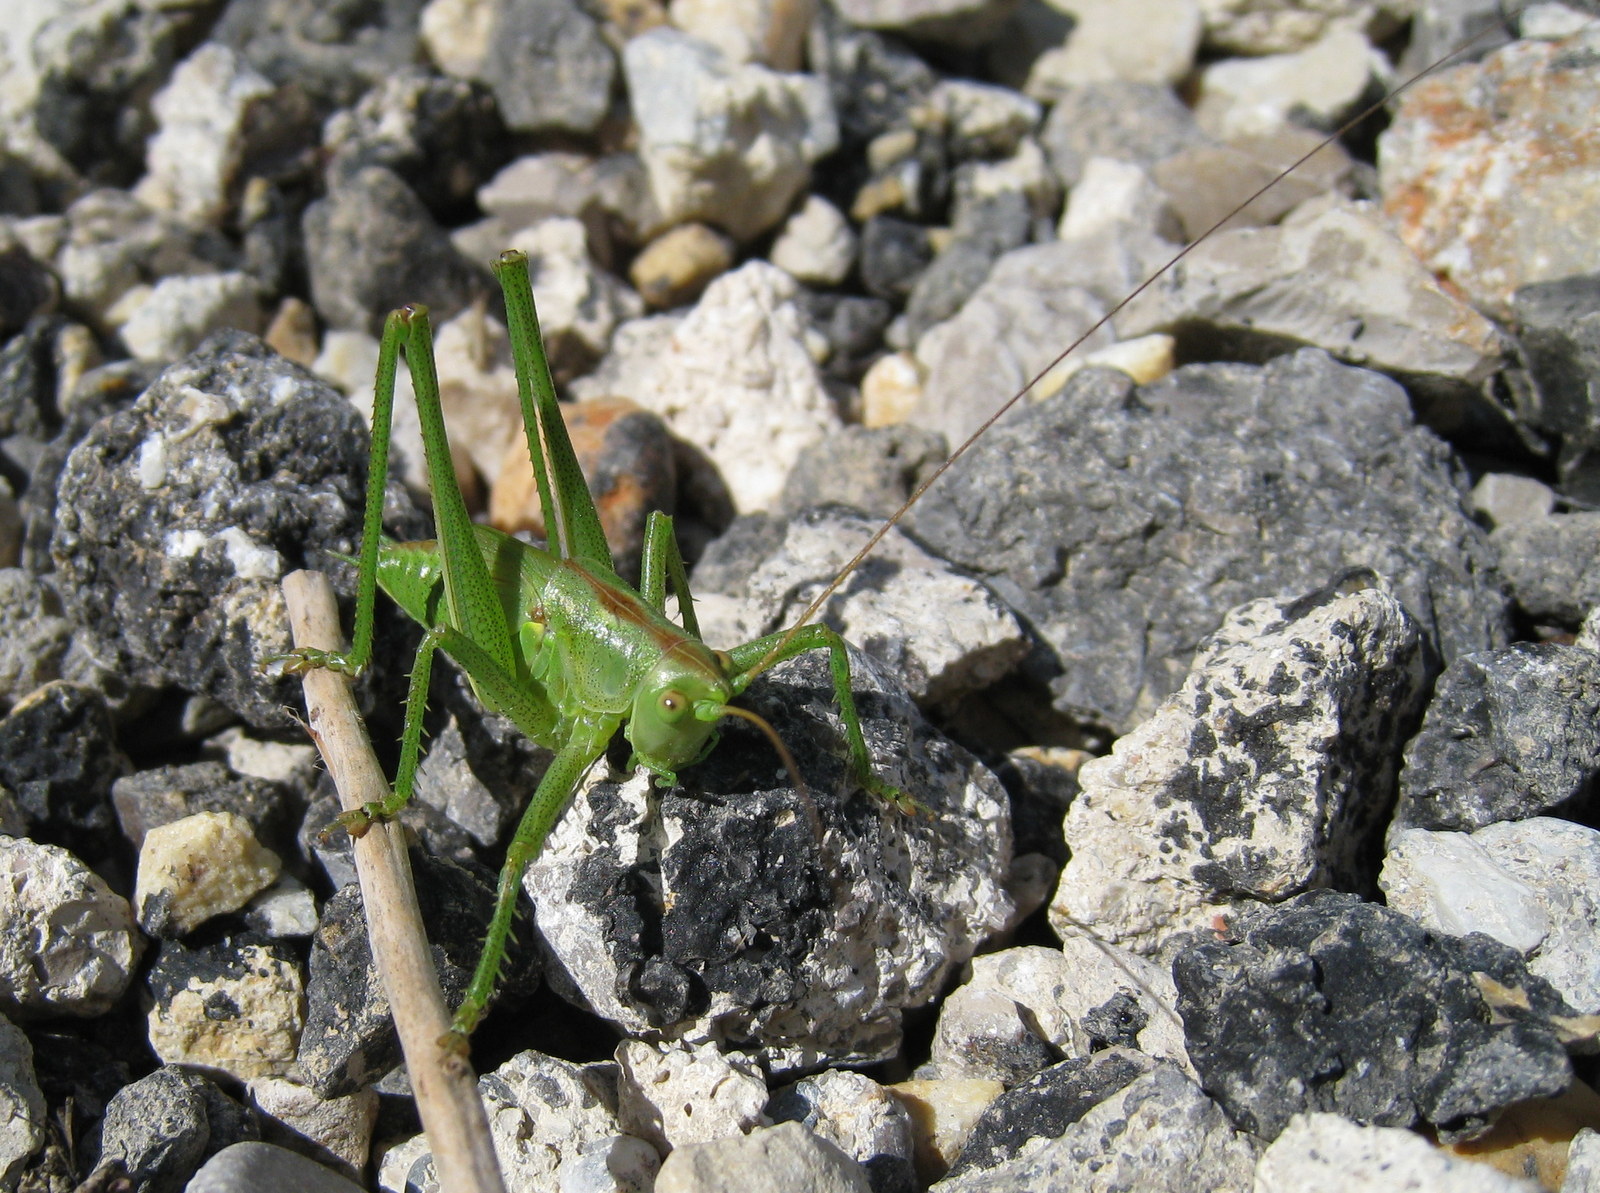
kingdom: Animalia
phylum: Arthropoda
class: Insecta
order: Orthoptera
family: Tettigoniidae
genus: Tettigonia
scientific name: Tettigonia viridissima
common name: Great green bush-cricket
